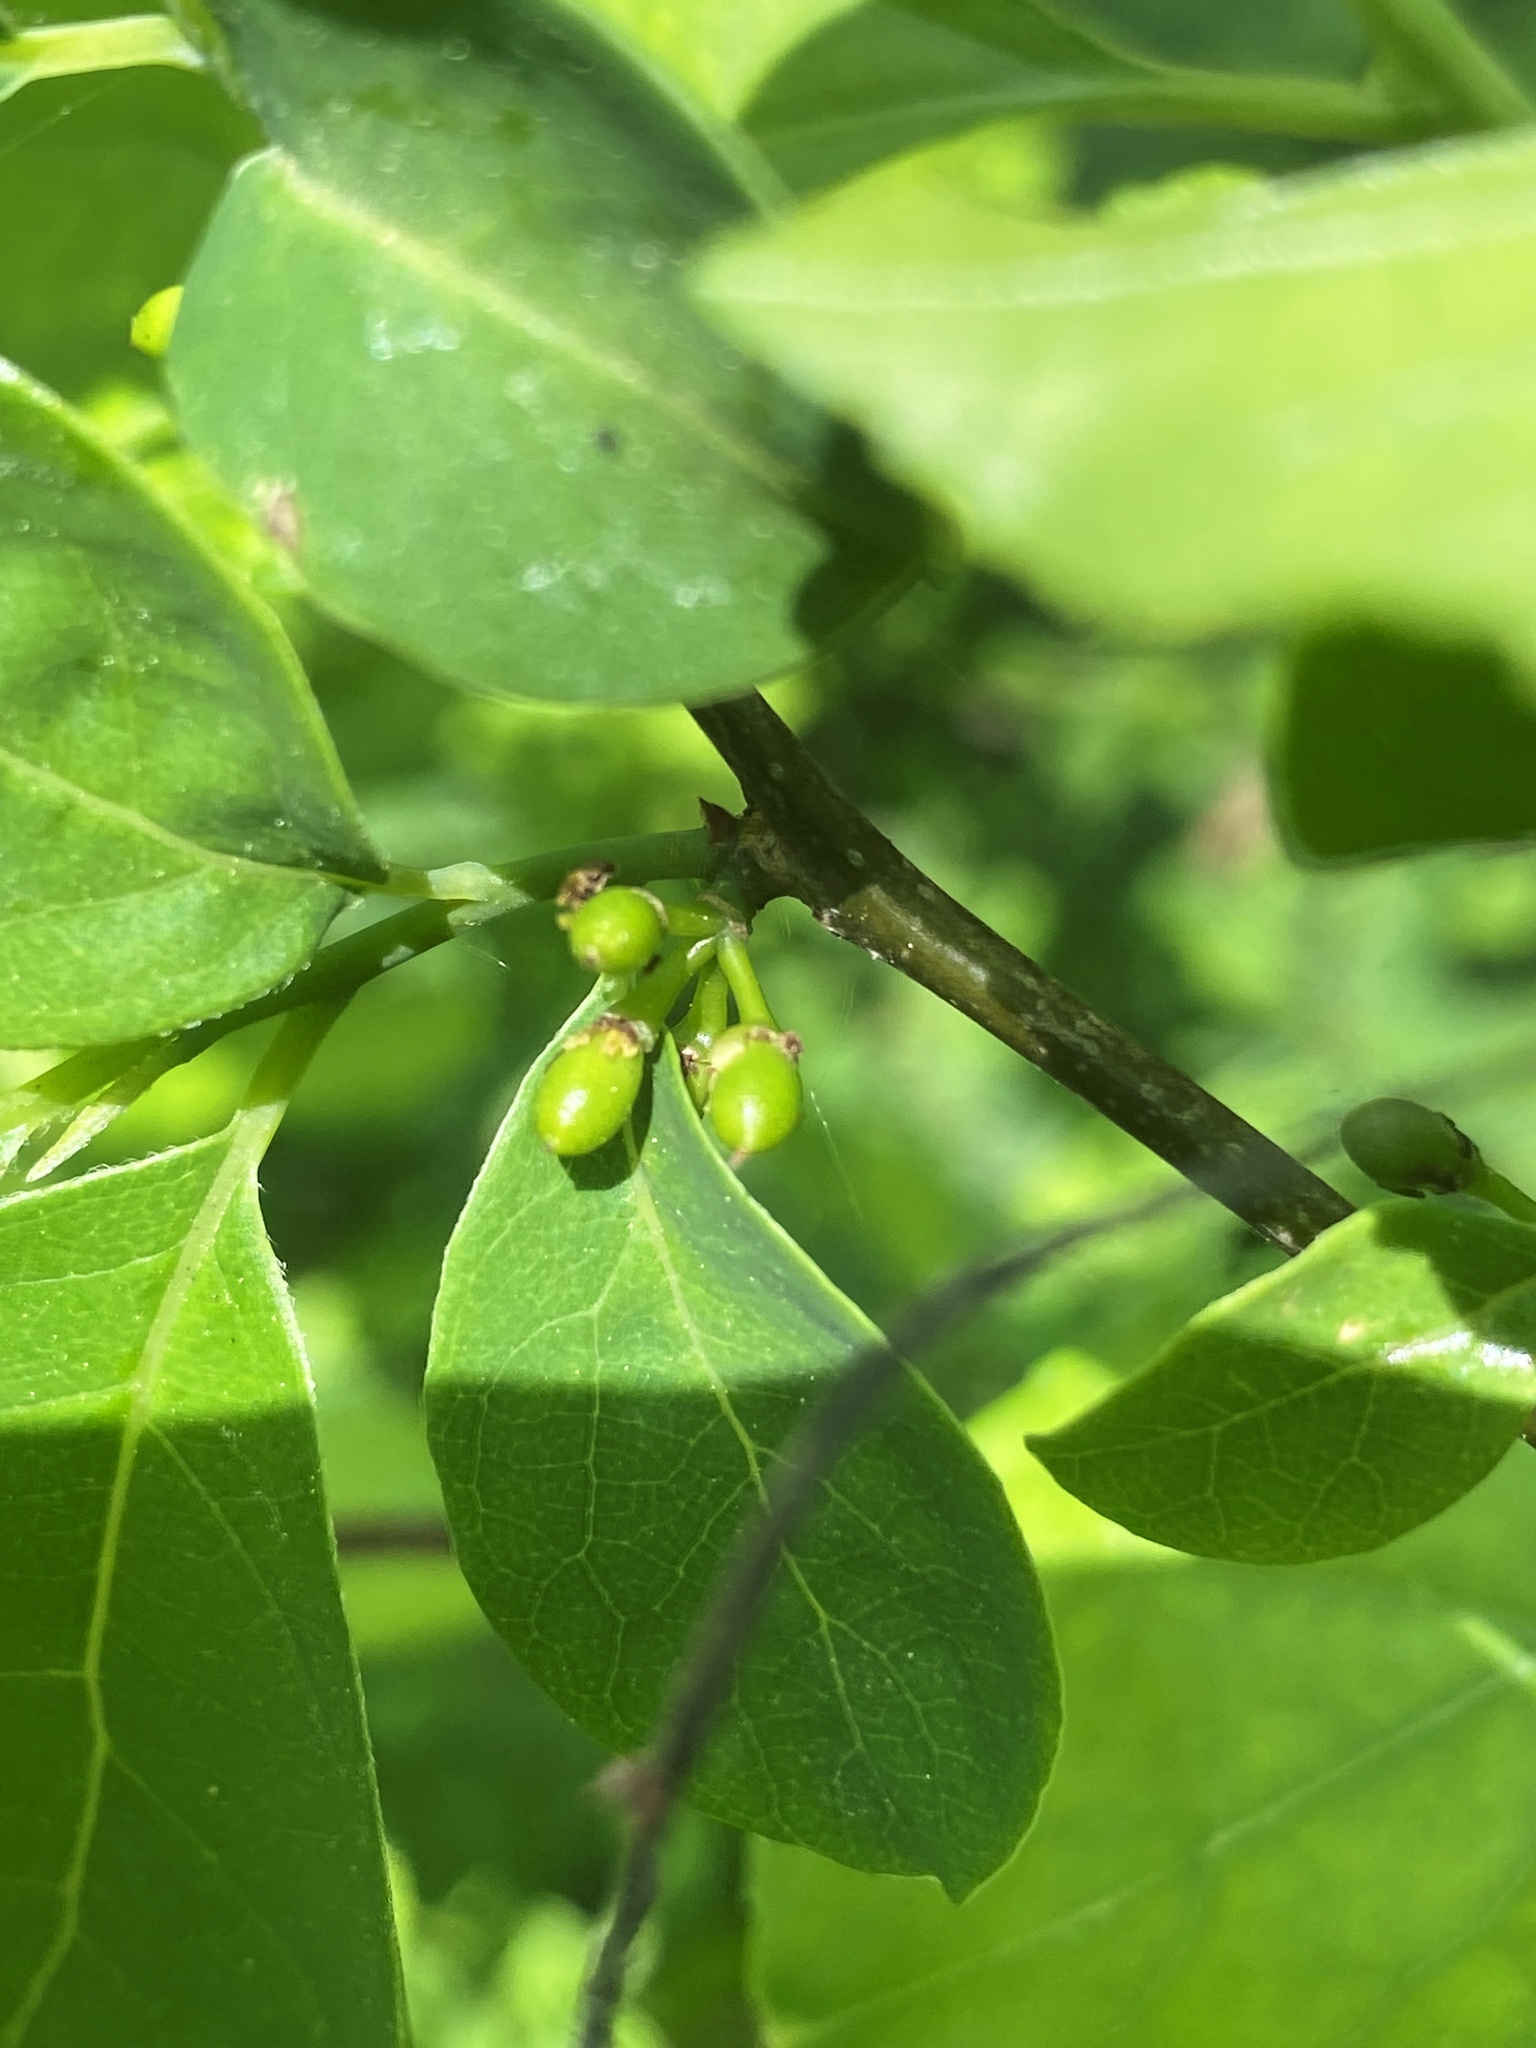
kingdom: Plantae
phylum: Tracheophyta
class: Magnoliopsida
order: Laurales
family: Lauraceae
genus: Lindera
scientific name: Lindera benzoin
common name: Spicebush
